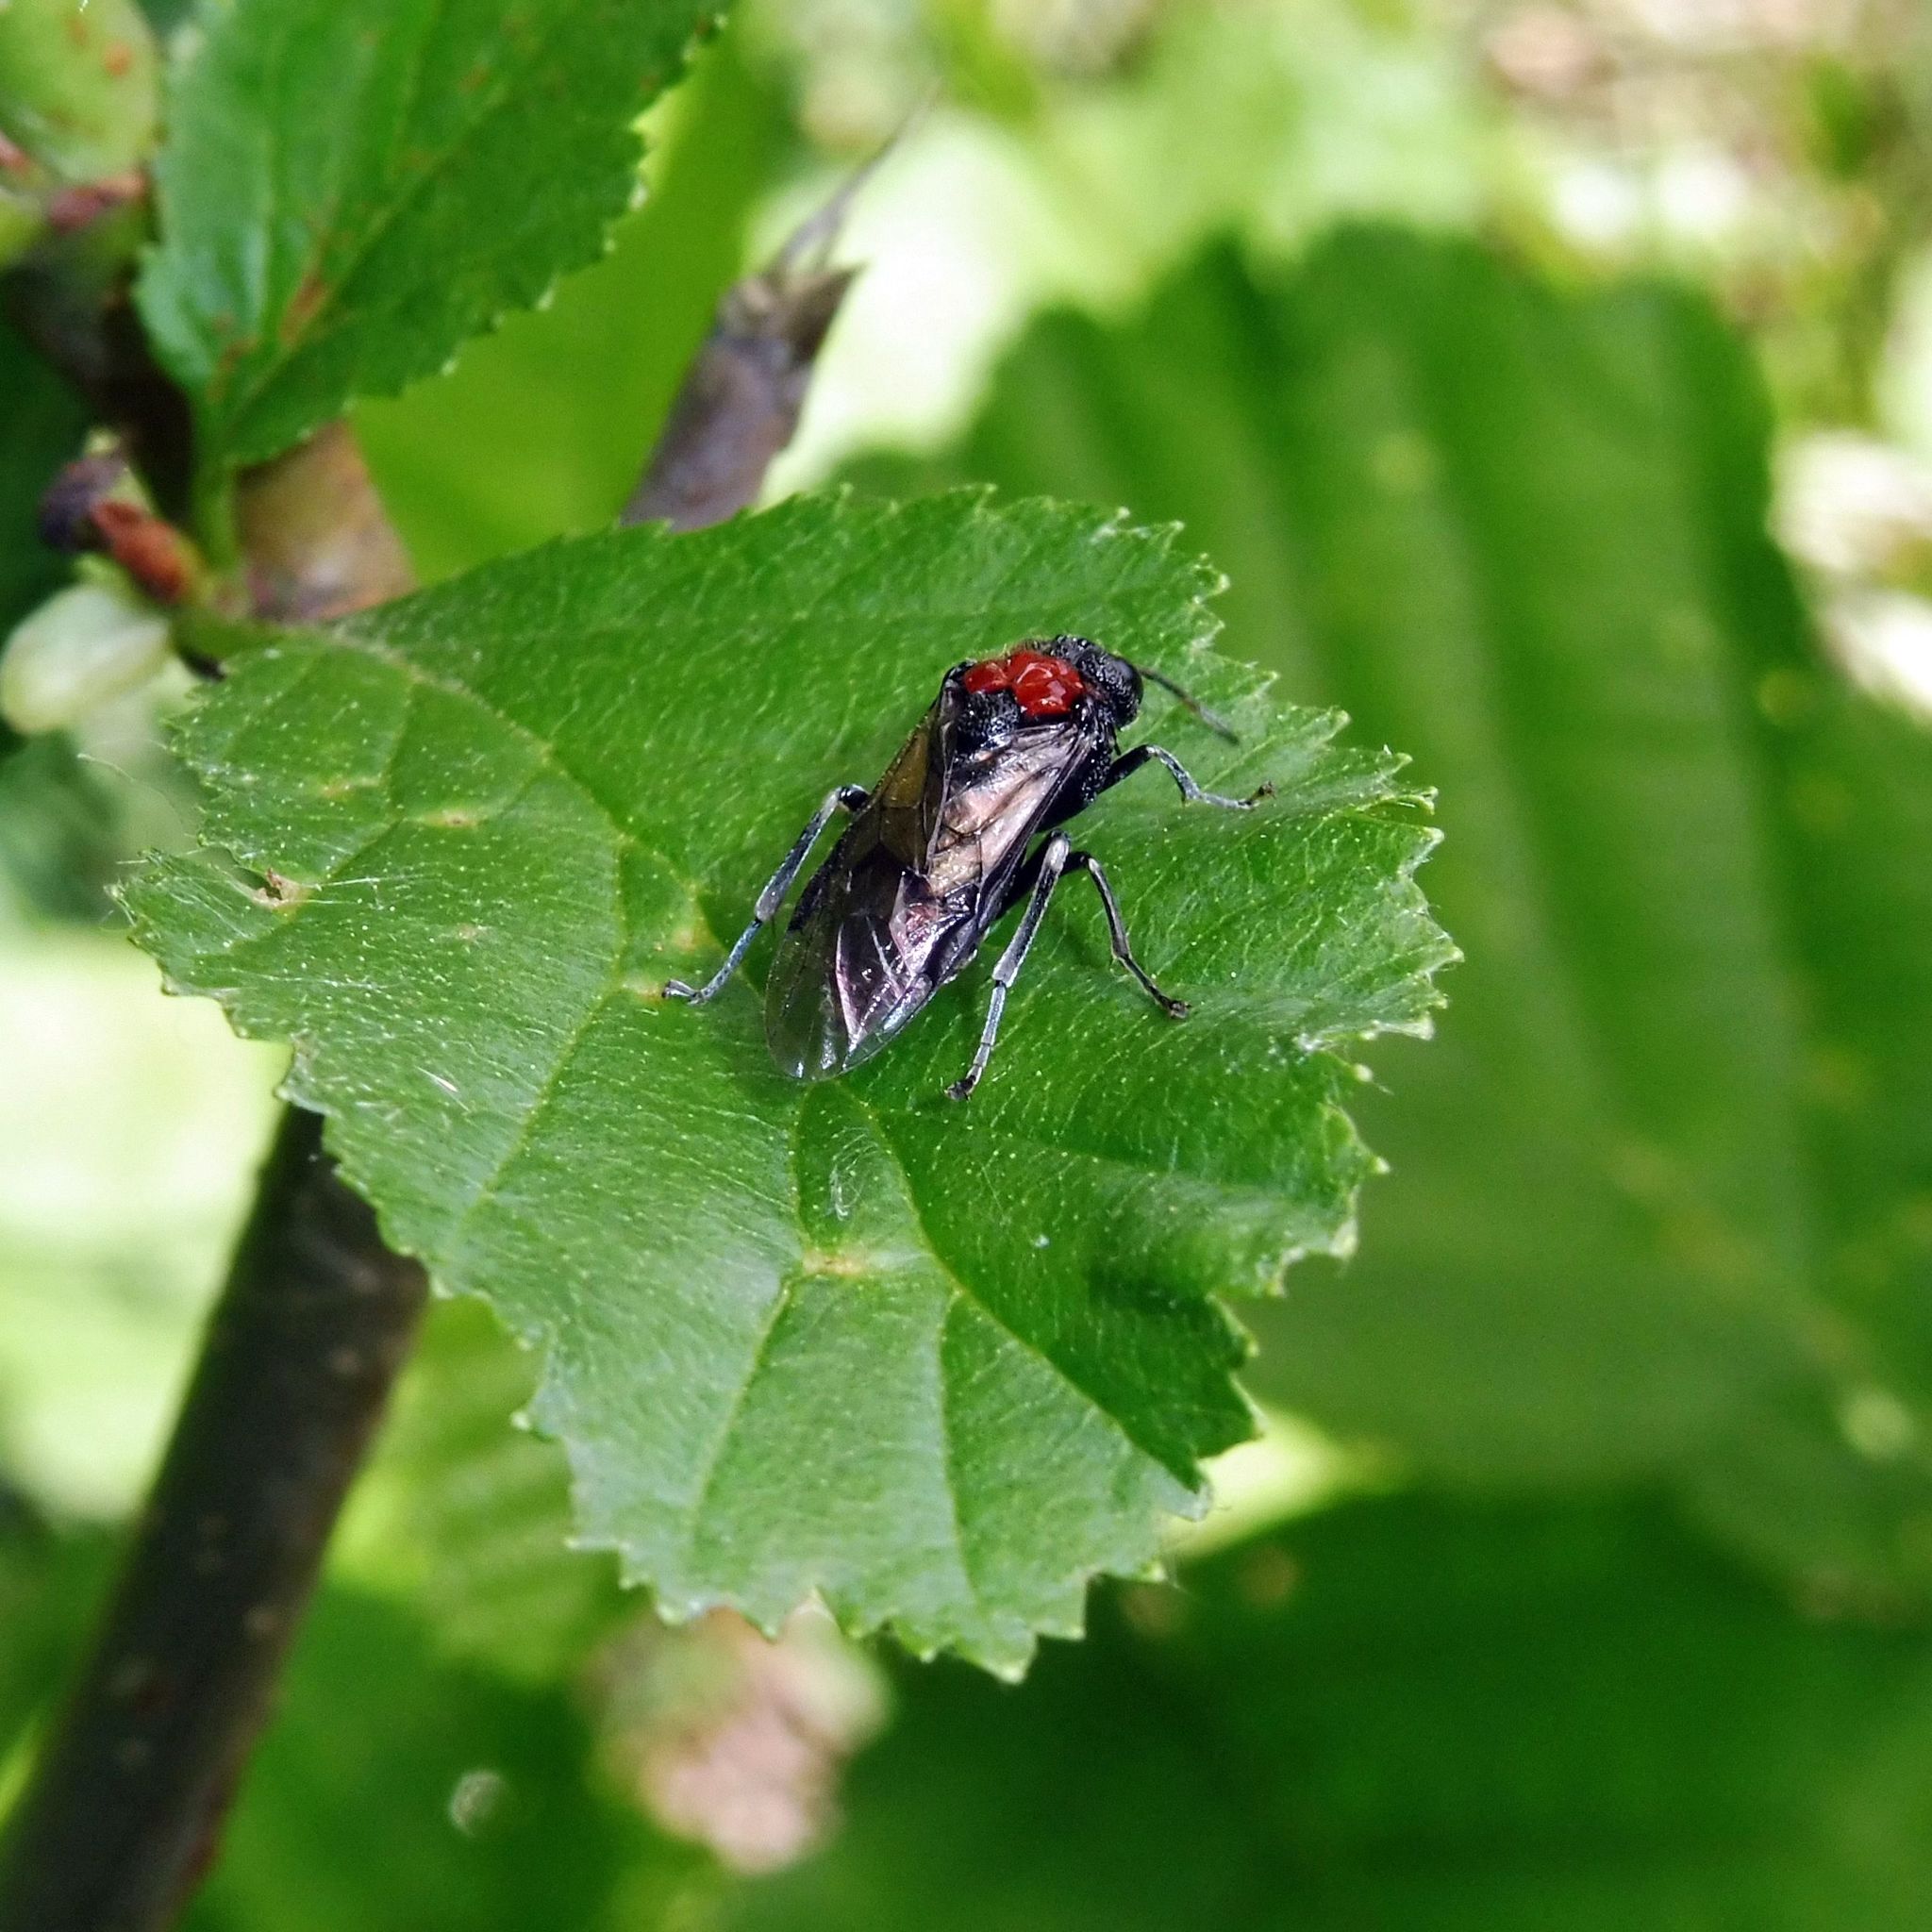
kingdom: Animalia
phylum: Arthropoda
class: Insecta
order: Hymenoptera
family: Tenthredinidae
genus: Eriocampa
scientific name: Eriocampa ovata
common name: Alder wooly sawfly
